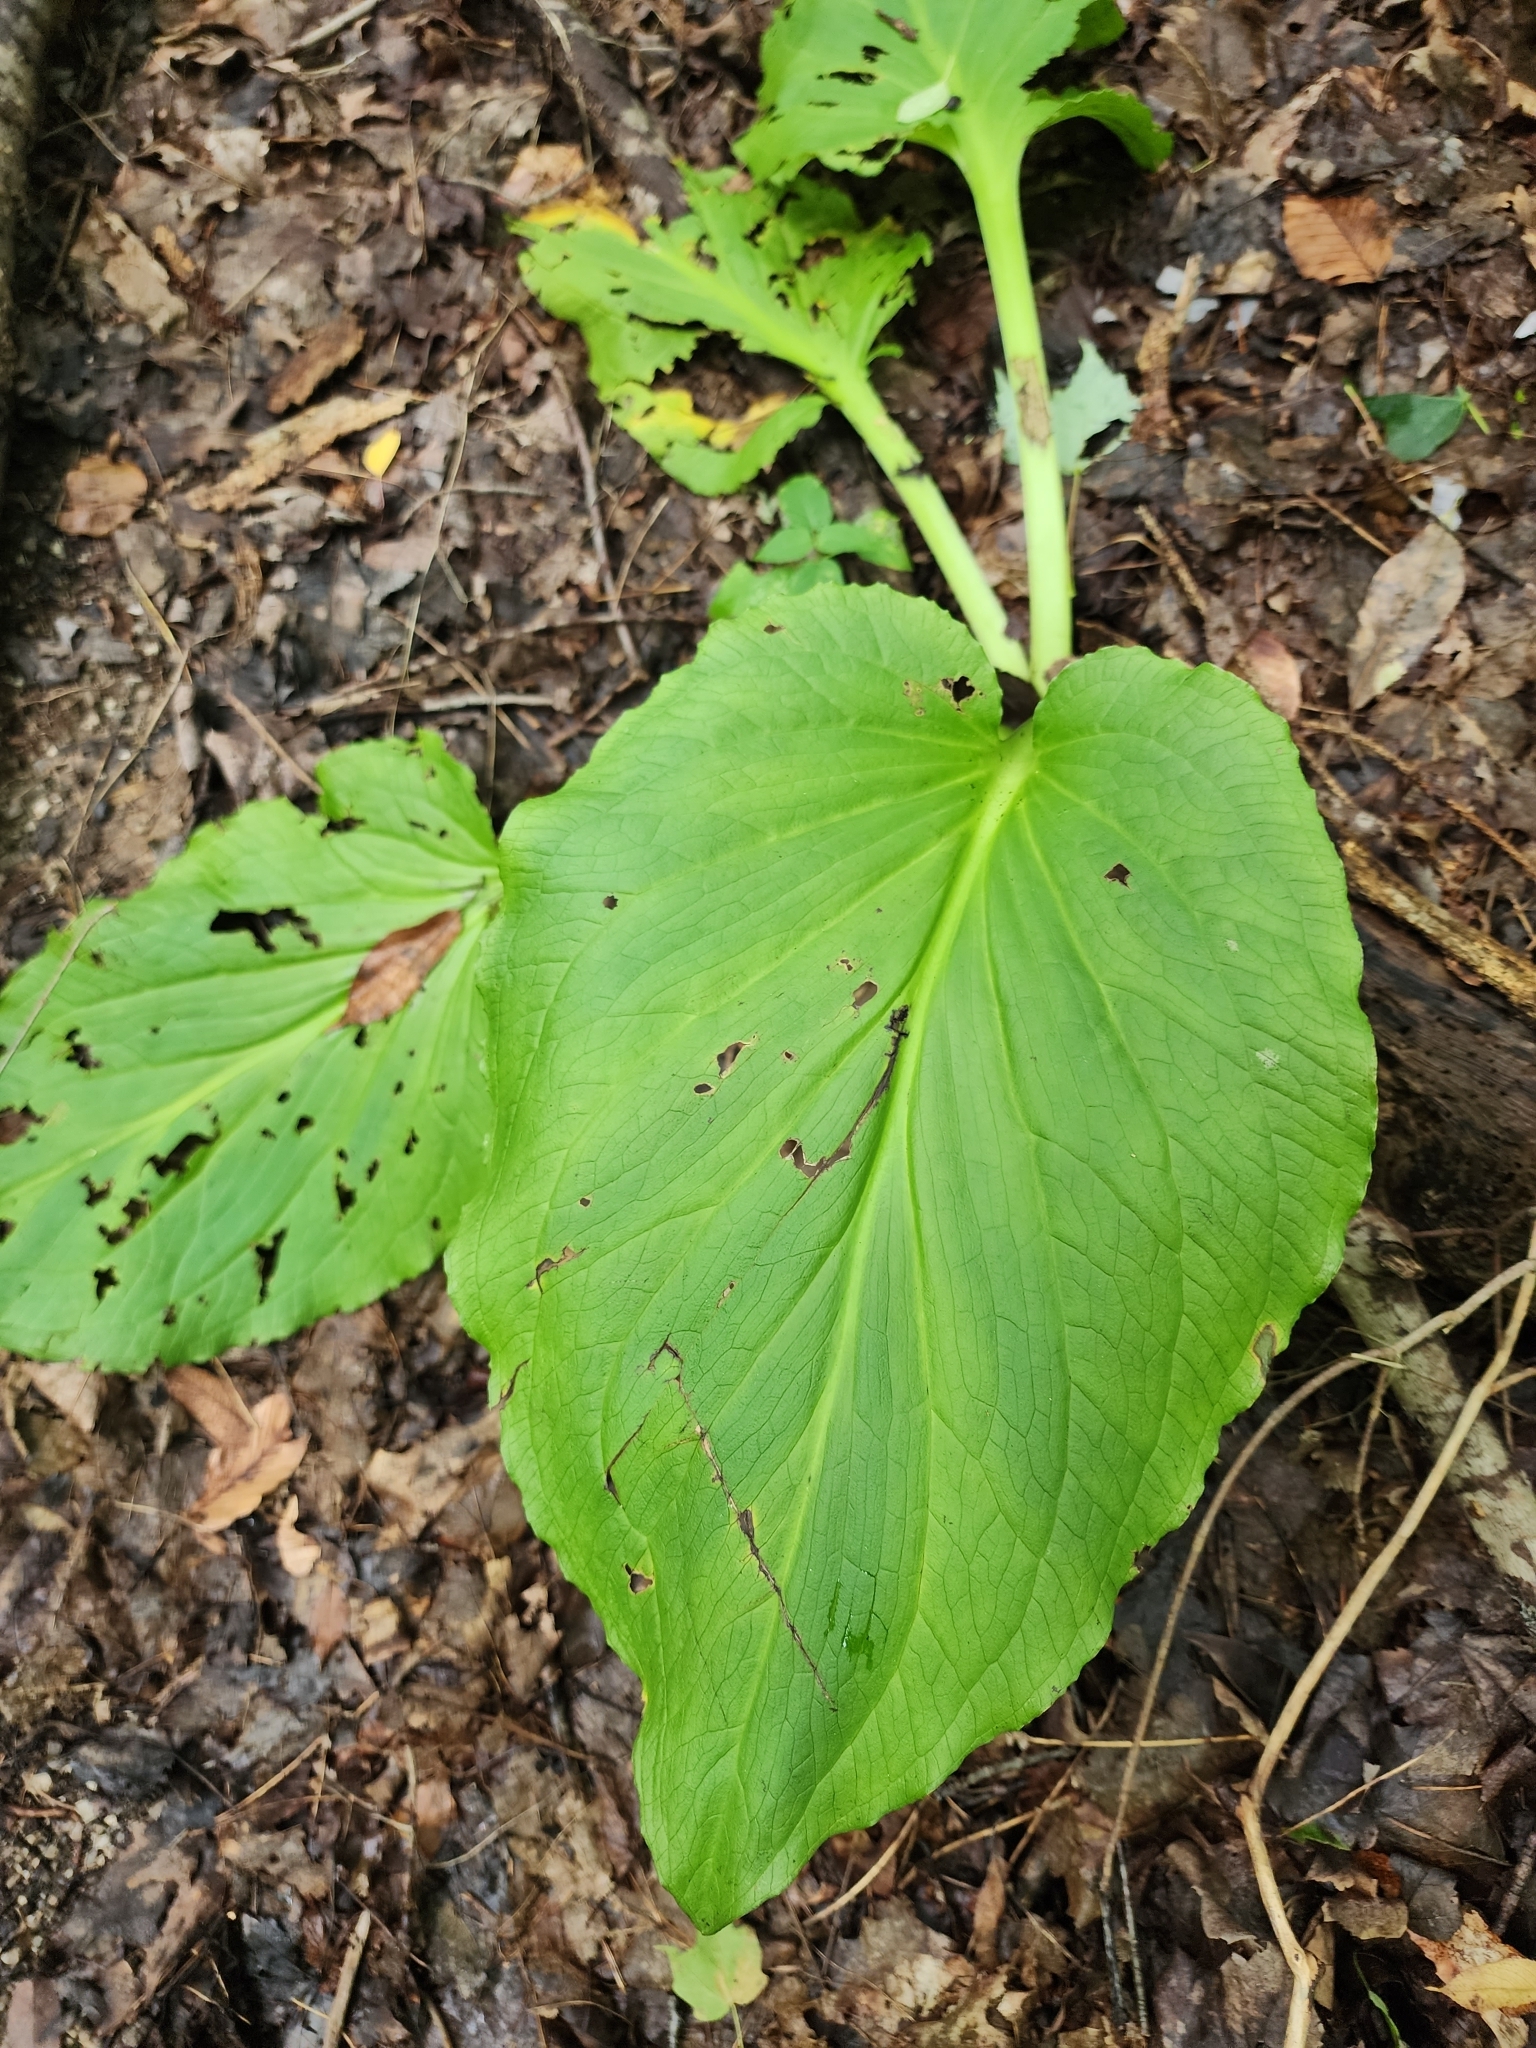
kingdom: Plantae
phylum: Tracheophyta
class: Liliopsida
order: Alismatales
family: Araceae
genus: Symplocarpus
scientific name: Symplocarpus foetidus
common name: Eastern skunk cabbage
